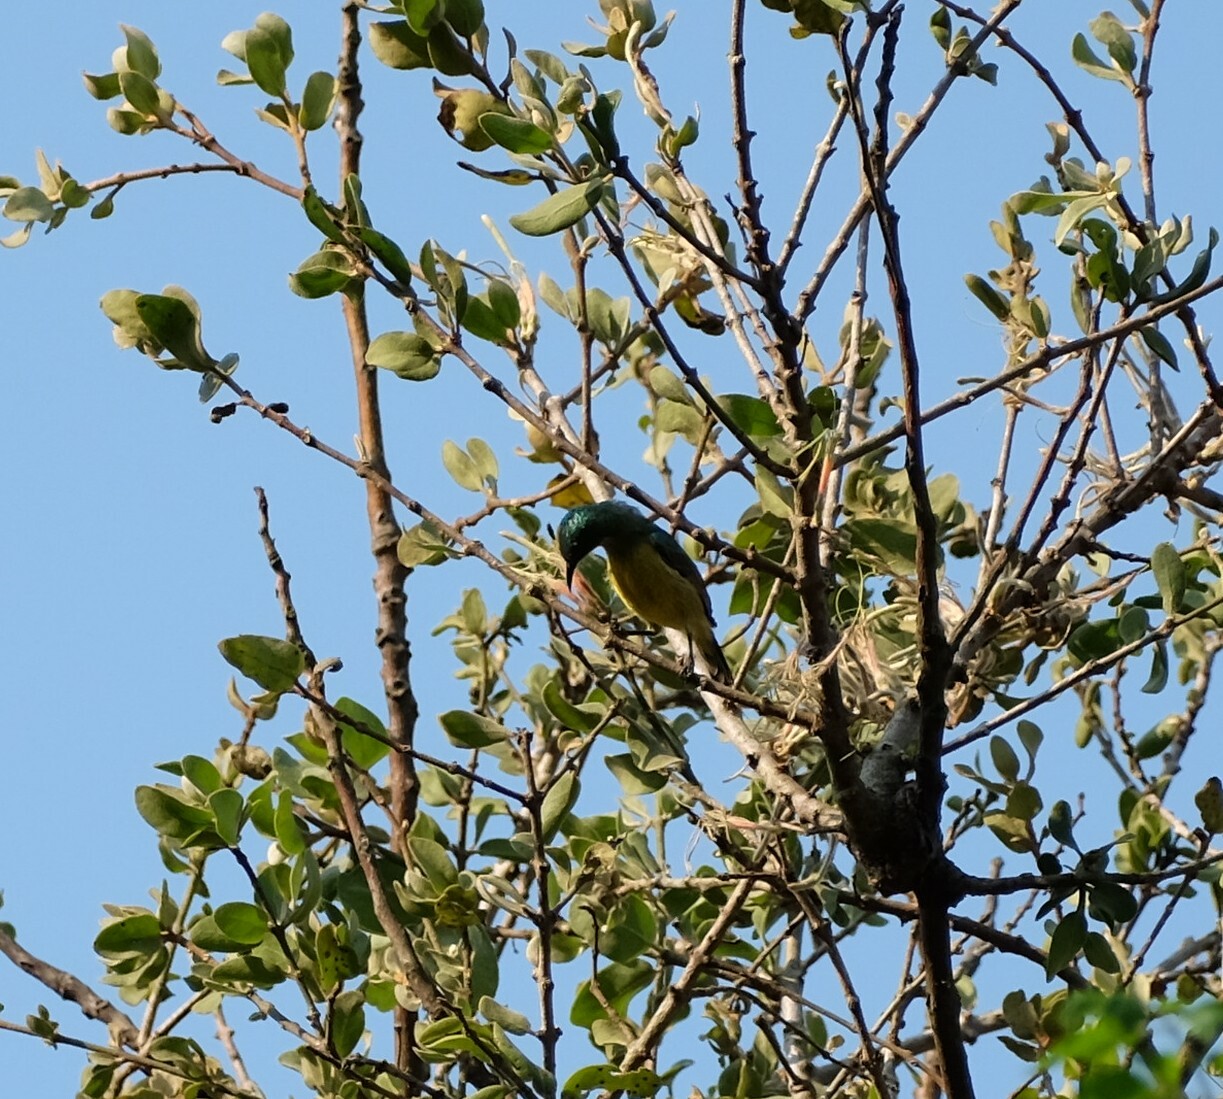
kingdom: Animalia
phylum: Chordata
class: Aves
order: Passeriformes
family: Nectariniidae
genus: Hedydipna
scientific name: Hedydipna collaris
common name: Collared sunbird
